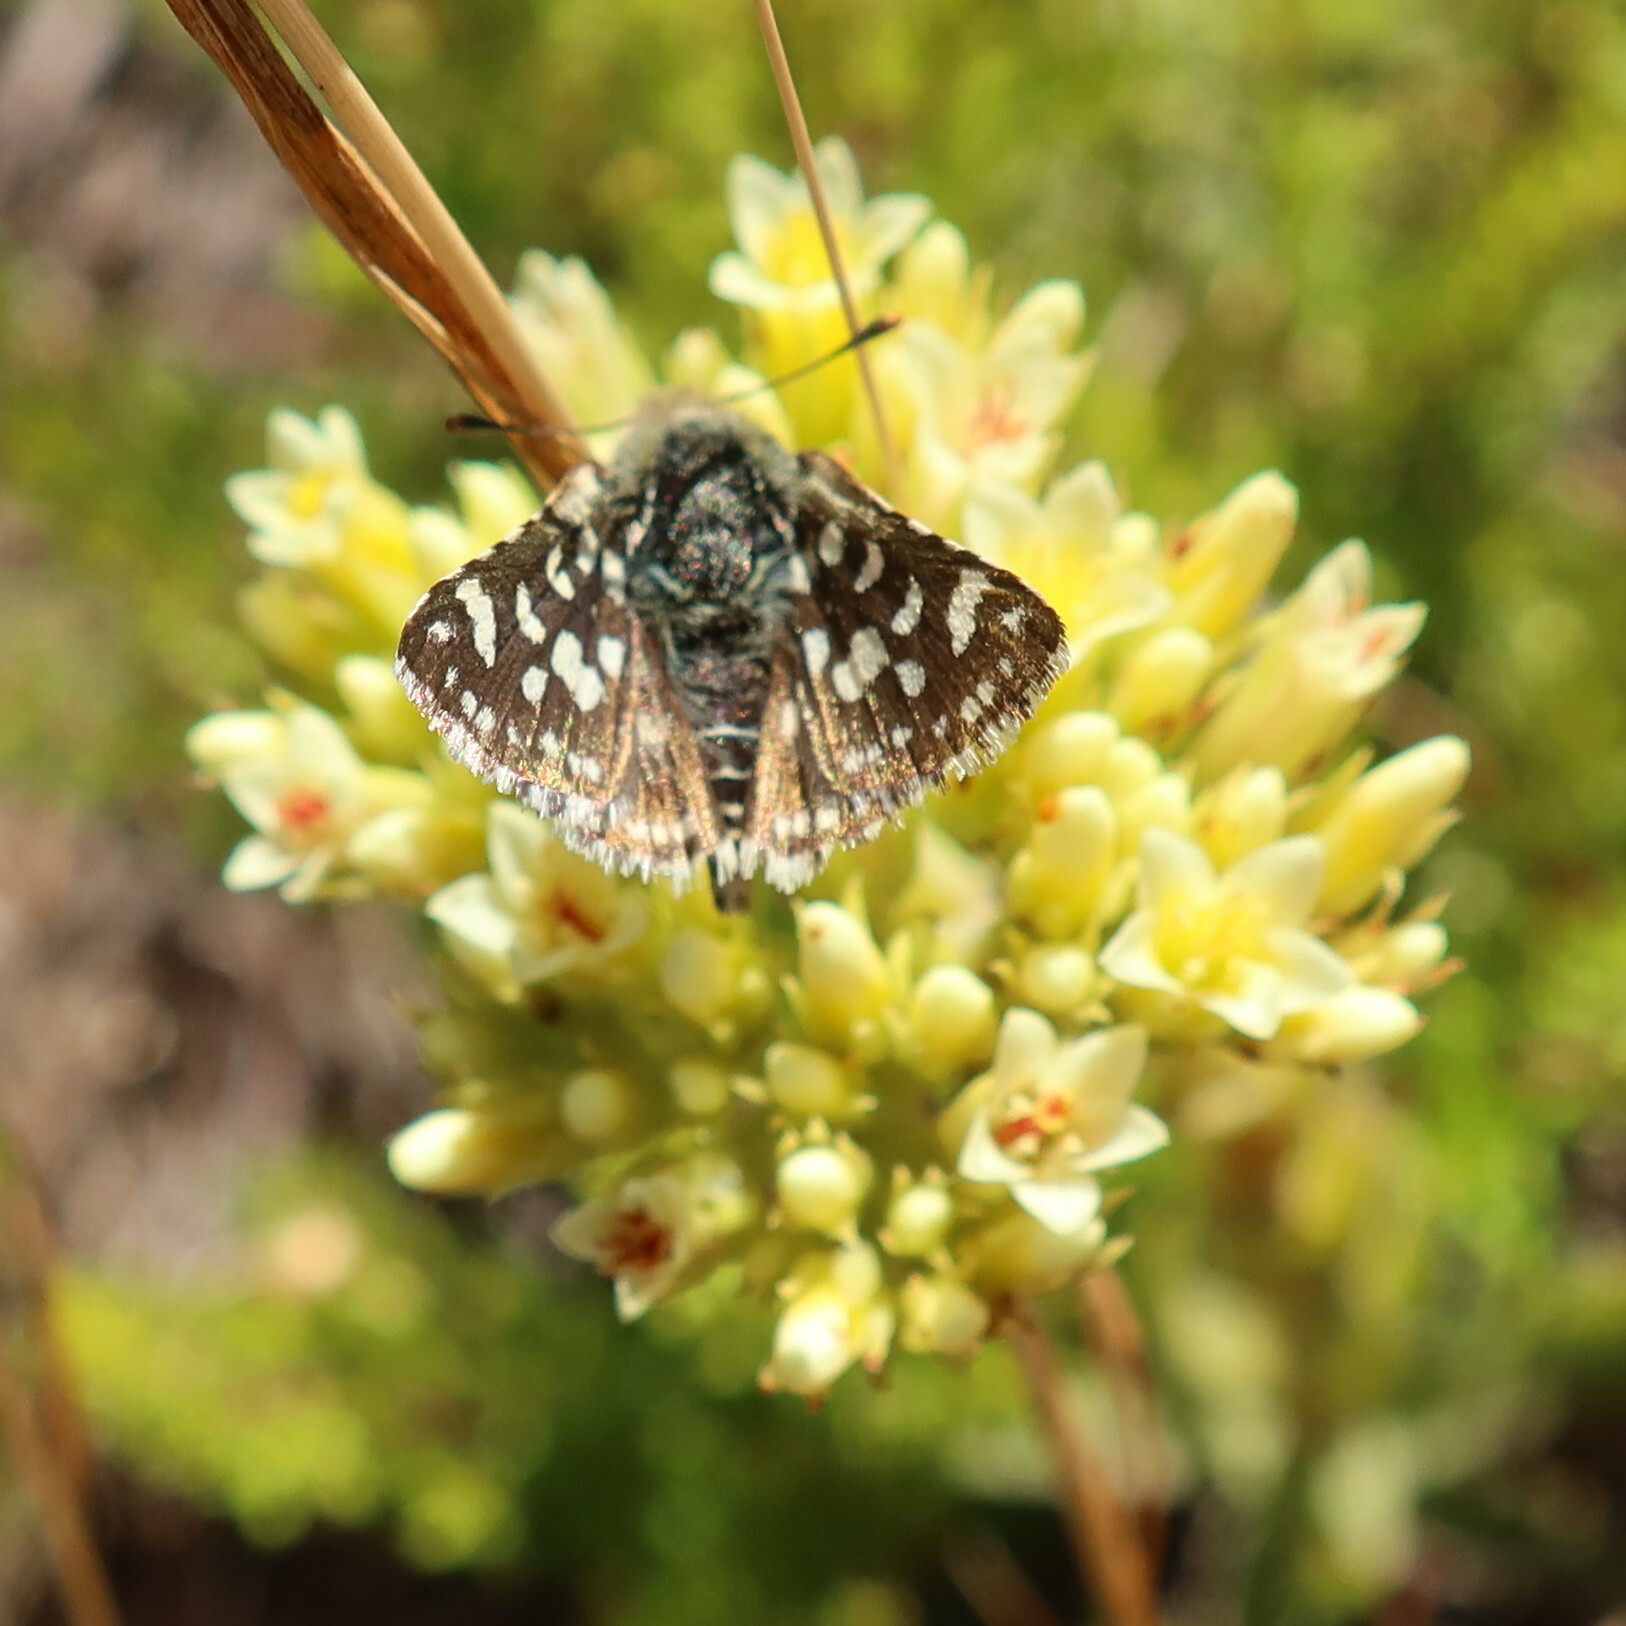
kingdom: Animalia
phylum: Arthropoda
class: Insecta
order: Lepidoptera
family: Hesperiidae
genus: Spialia
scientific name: Spialia spio
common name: Mountain sandman
